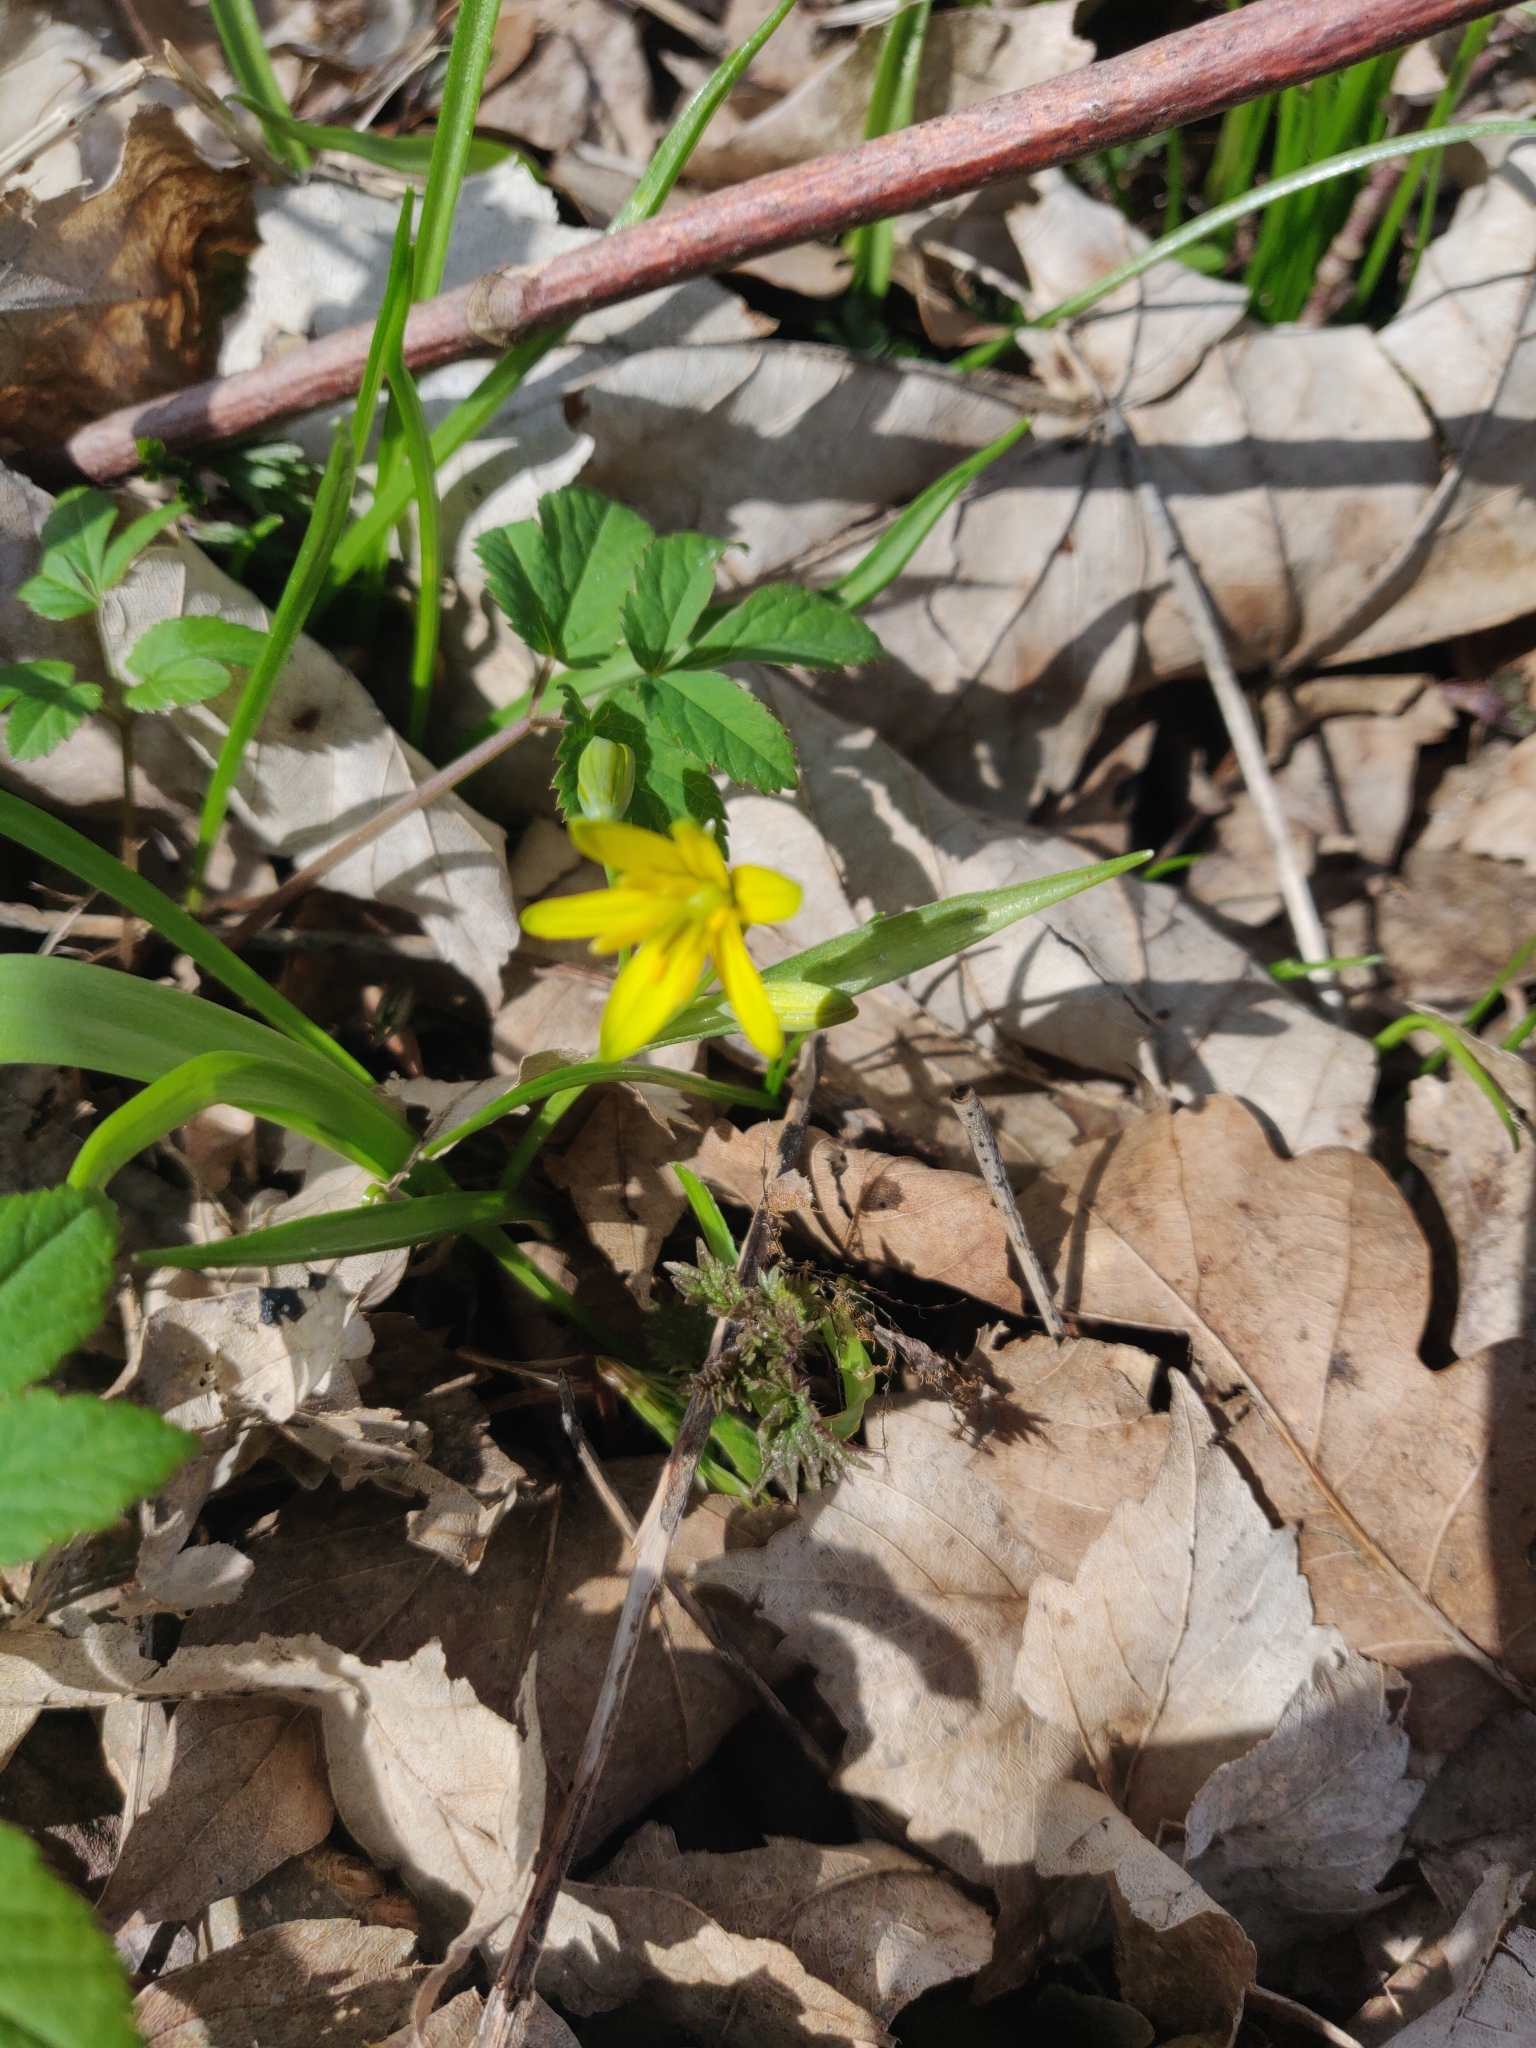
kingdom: Plantae
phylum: Tracheophyta
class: Liliopsida
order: Liliales
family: Liliaceae
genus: Gagea
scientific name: Gagea lutea
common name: Yellow star-of-bethlehem
